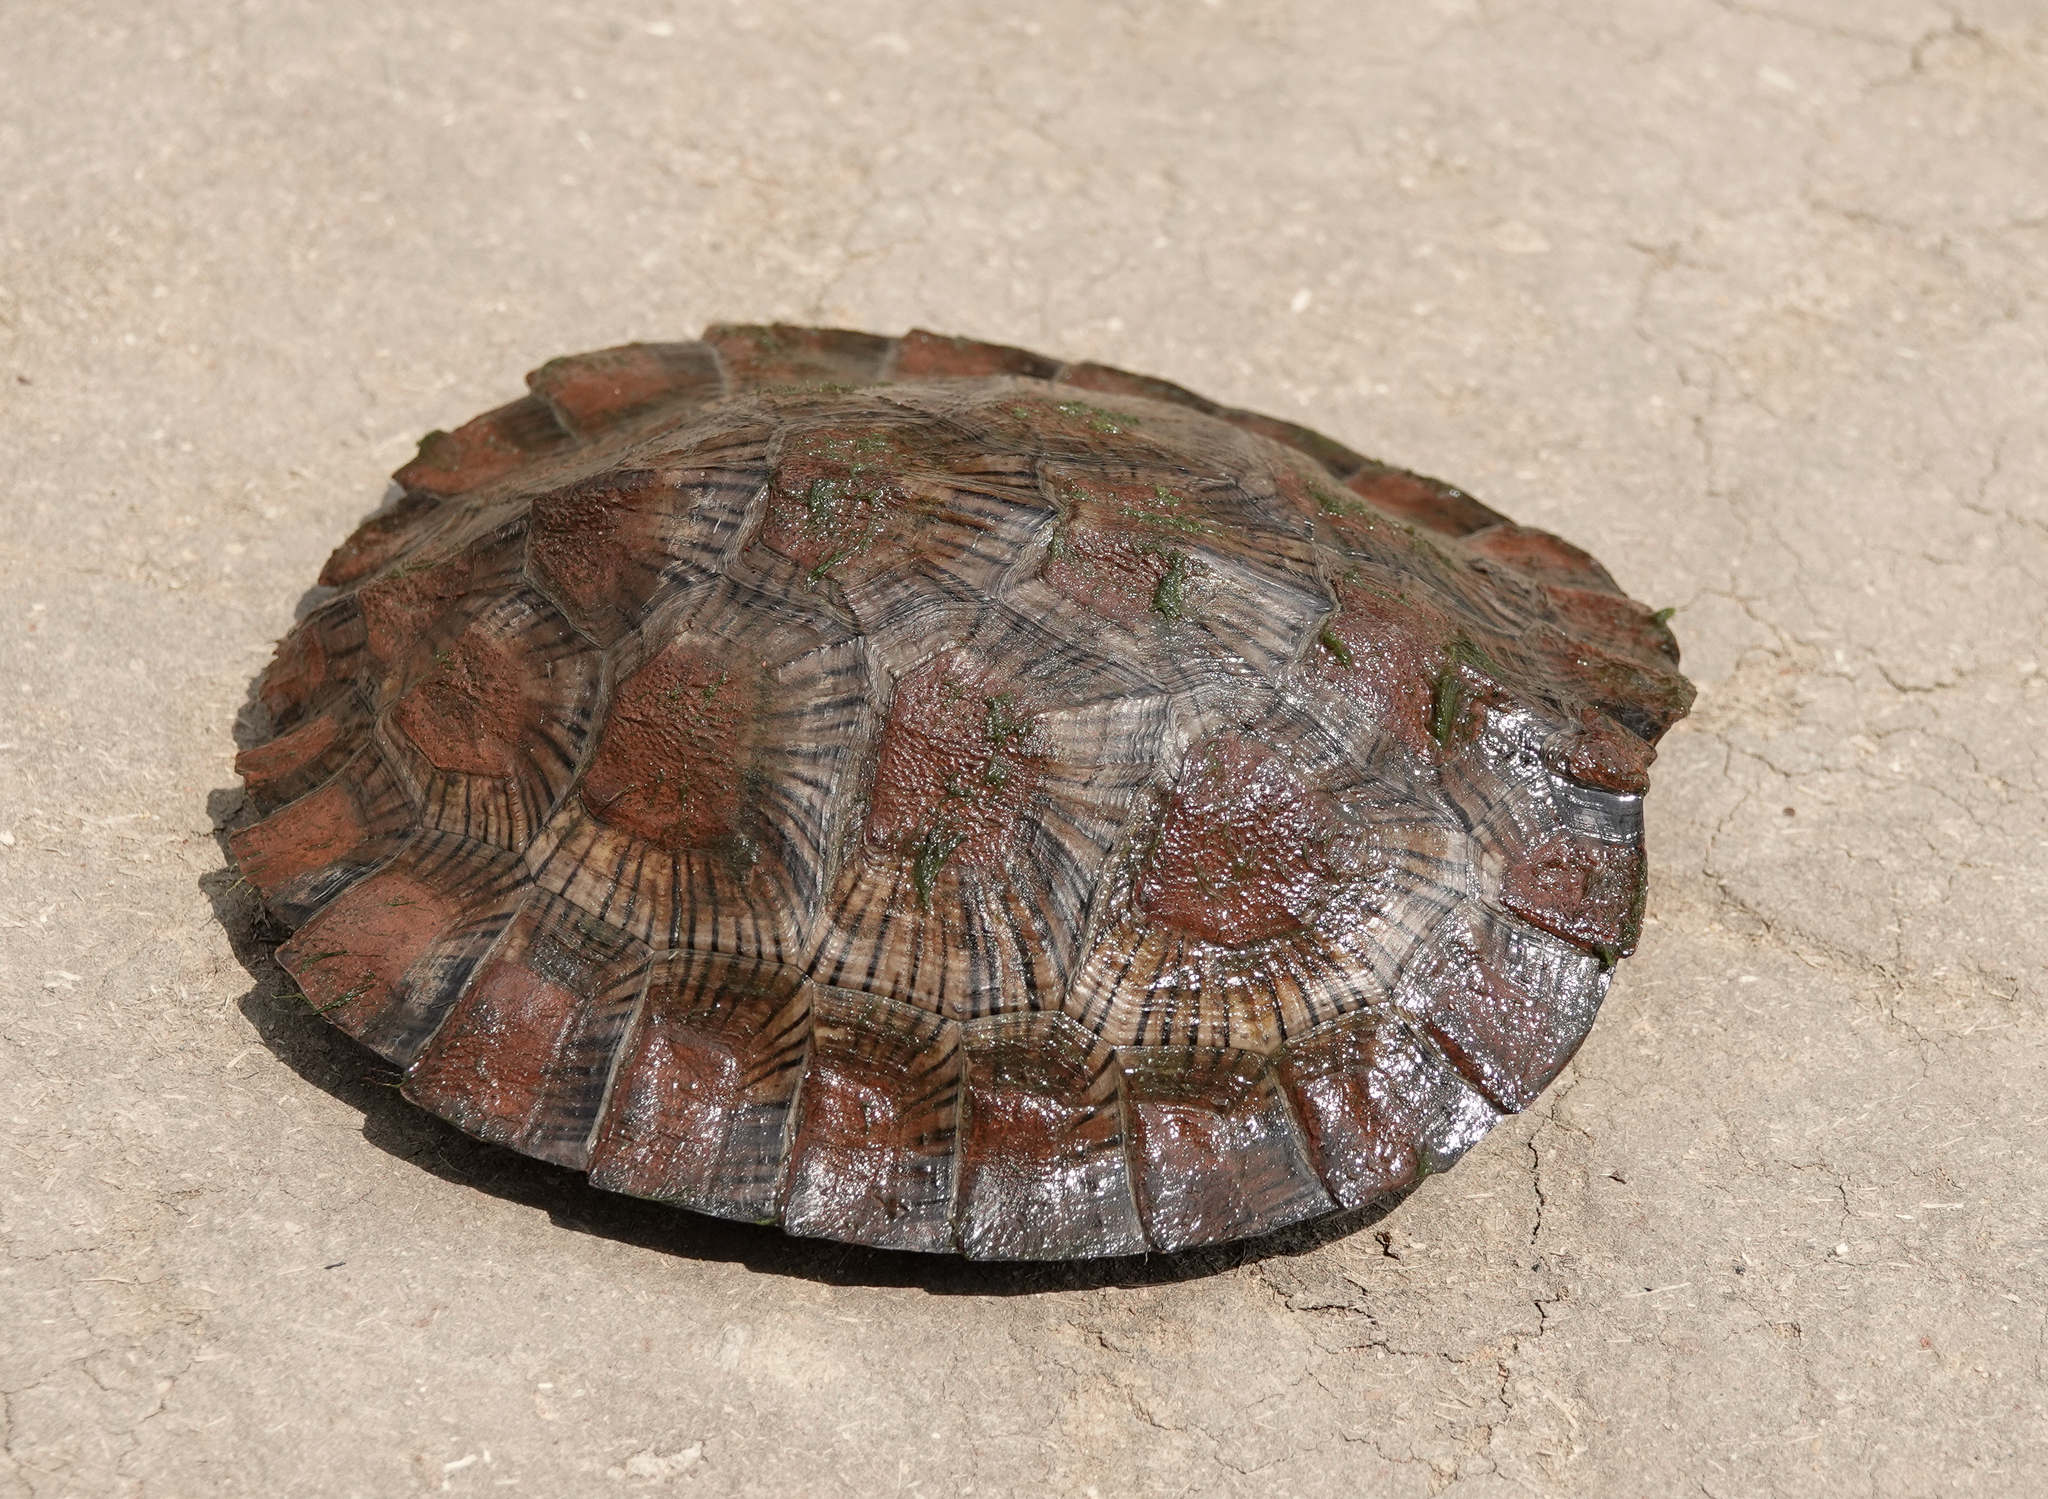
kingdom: Animalia
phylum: Chordata
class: Testudines
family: Geoemydidae
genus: Cyclemys
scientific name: Cyclemys gemeli
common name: Assam leaf turtle
